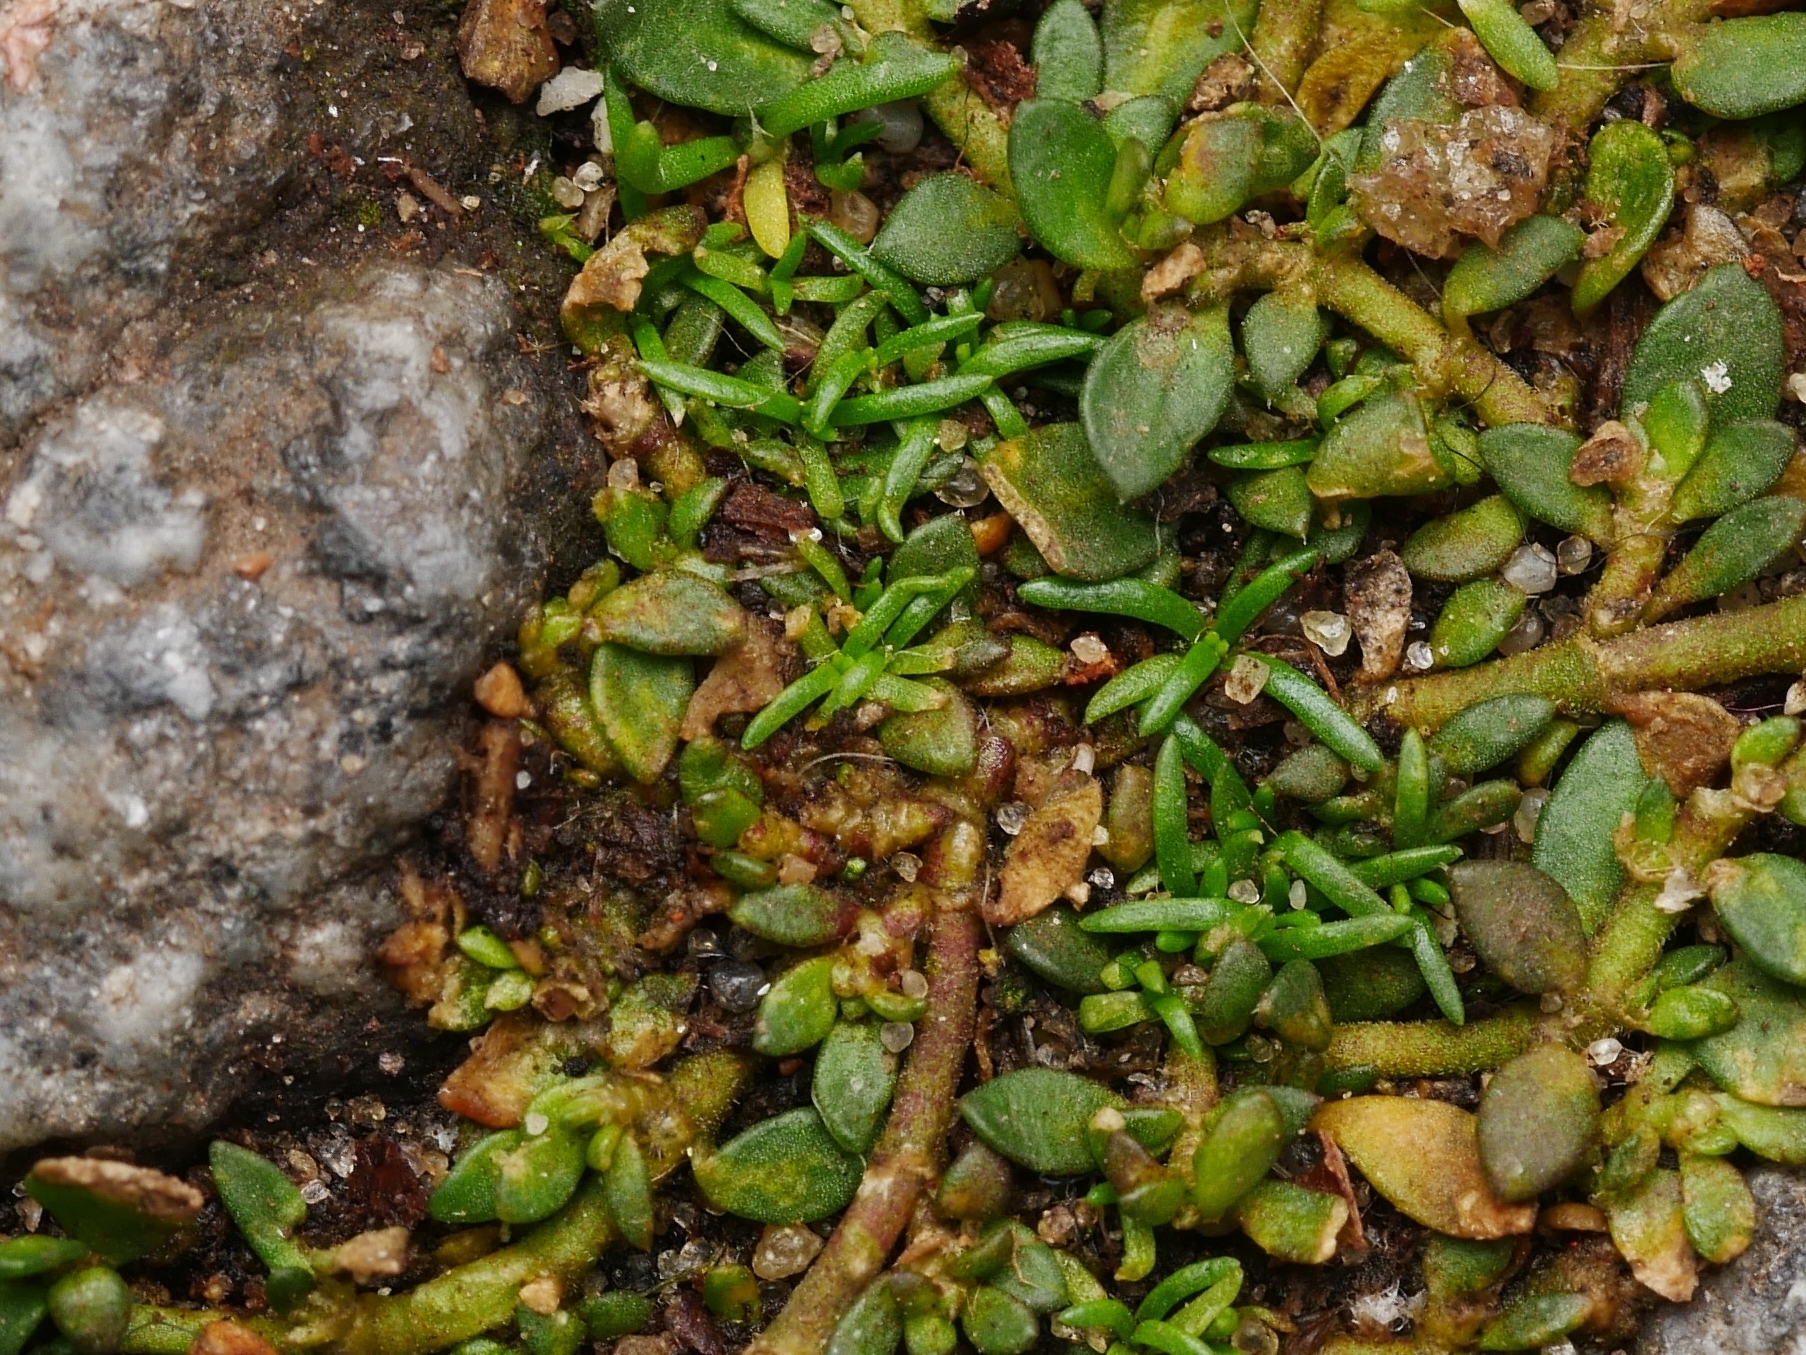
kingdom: Plantae
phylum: Tracheophyta
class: Magnoliopsida
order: Caryophyllales
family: Caryophyllaceae
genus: Sagina
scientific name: Sagina procumbens
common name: Procumbent pearlwort
